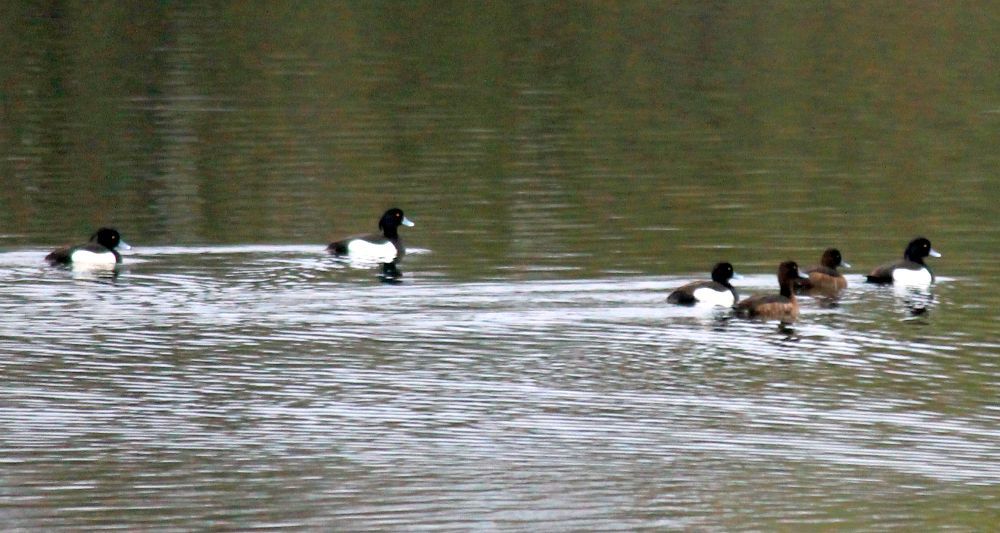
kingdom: Animalia
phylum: Chordata
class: Aves
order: Anseriformes
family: Anatidae
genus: Aythya
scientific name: Aythya fuligula
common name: Tufted duck
